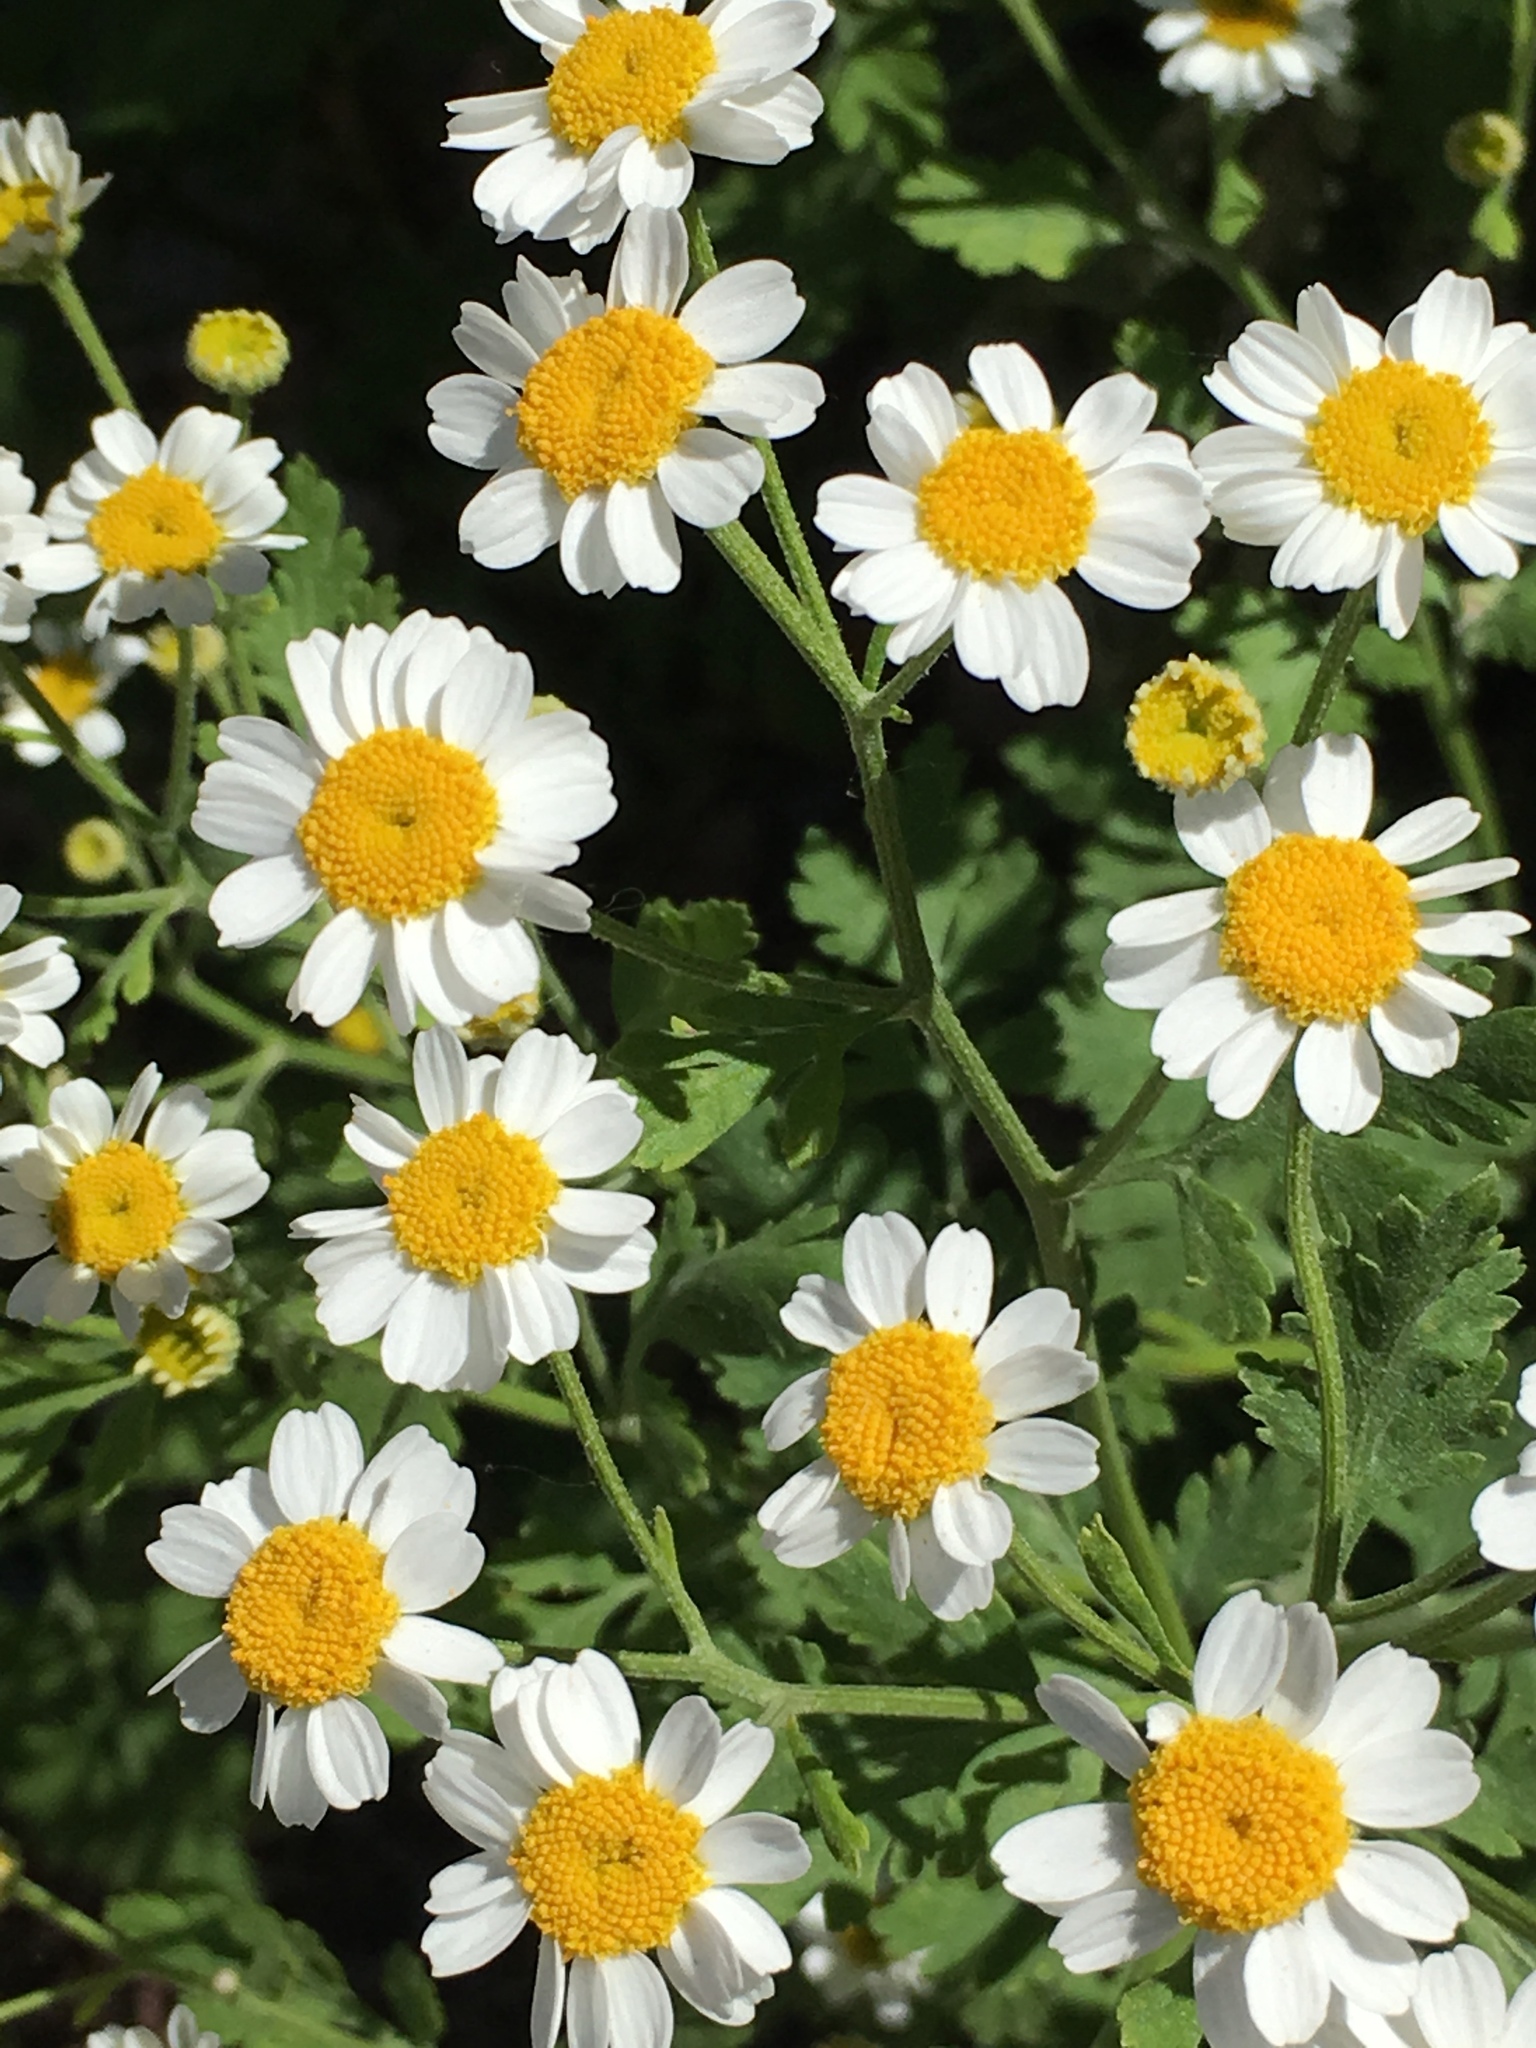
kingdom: Plantae
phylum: Tracheophyta
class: Magnoliopsida
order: Asterales
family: Asteraceae
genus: Anthemis
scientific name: Anthemis cotula
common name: Stinking chamomile
